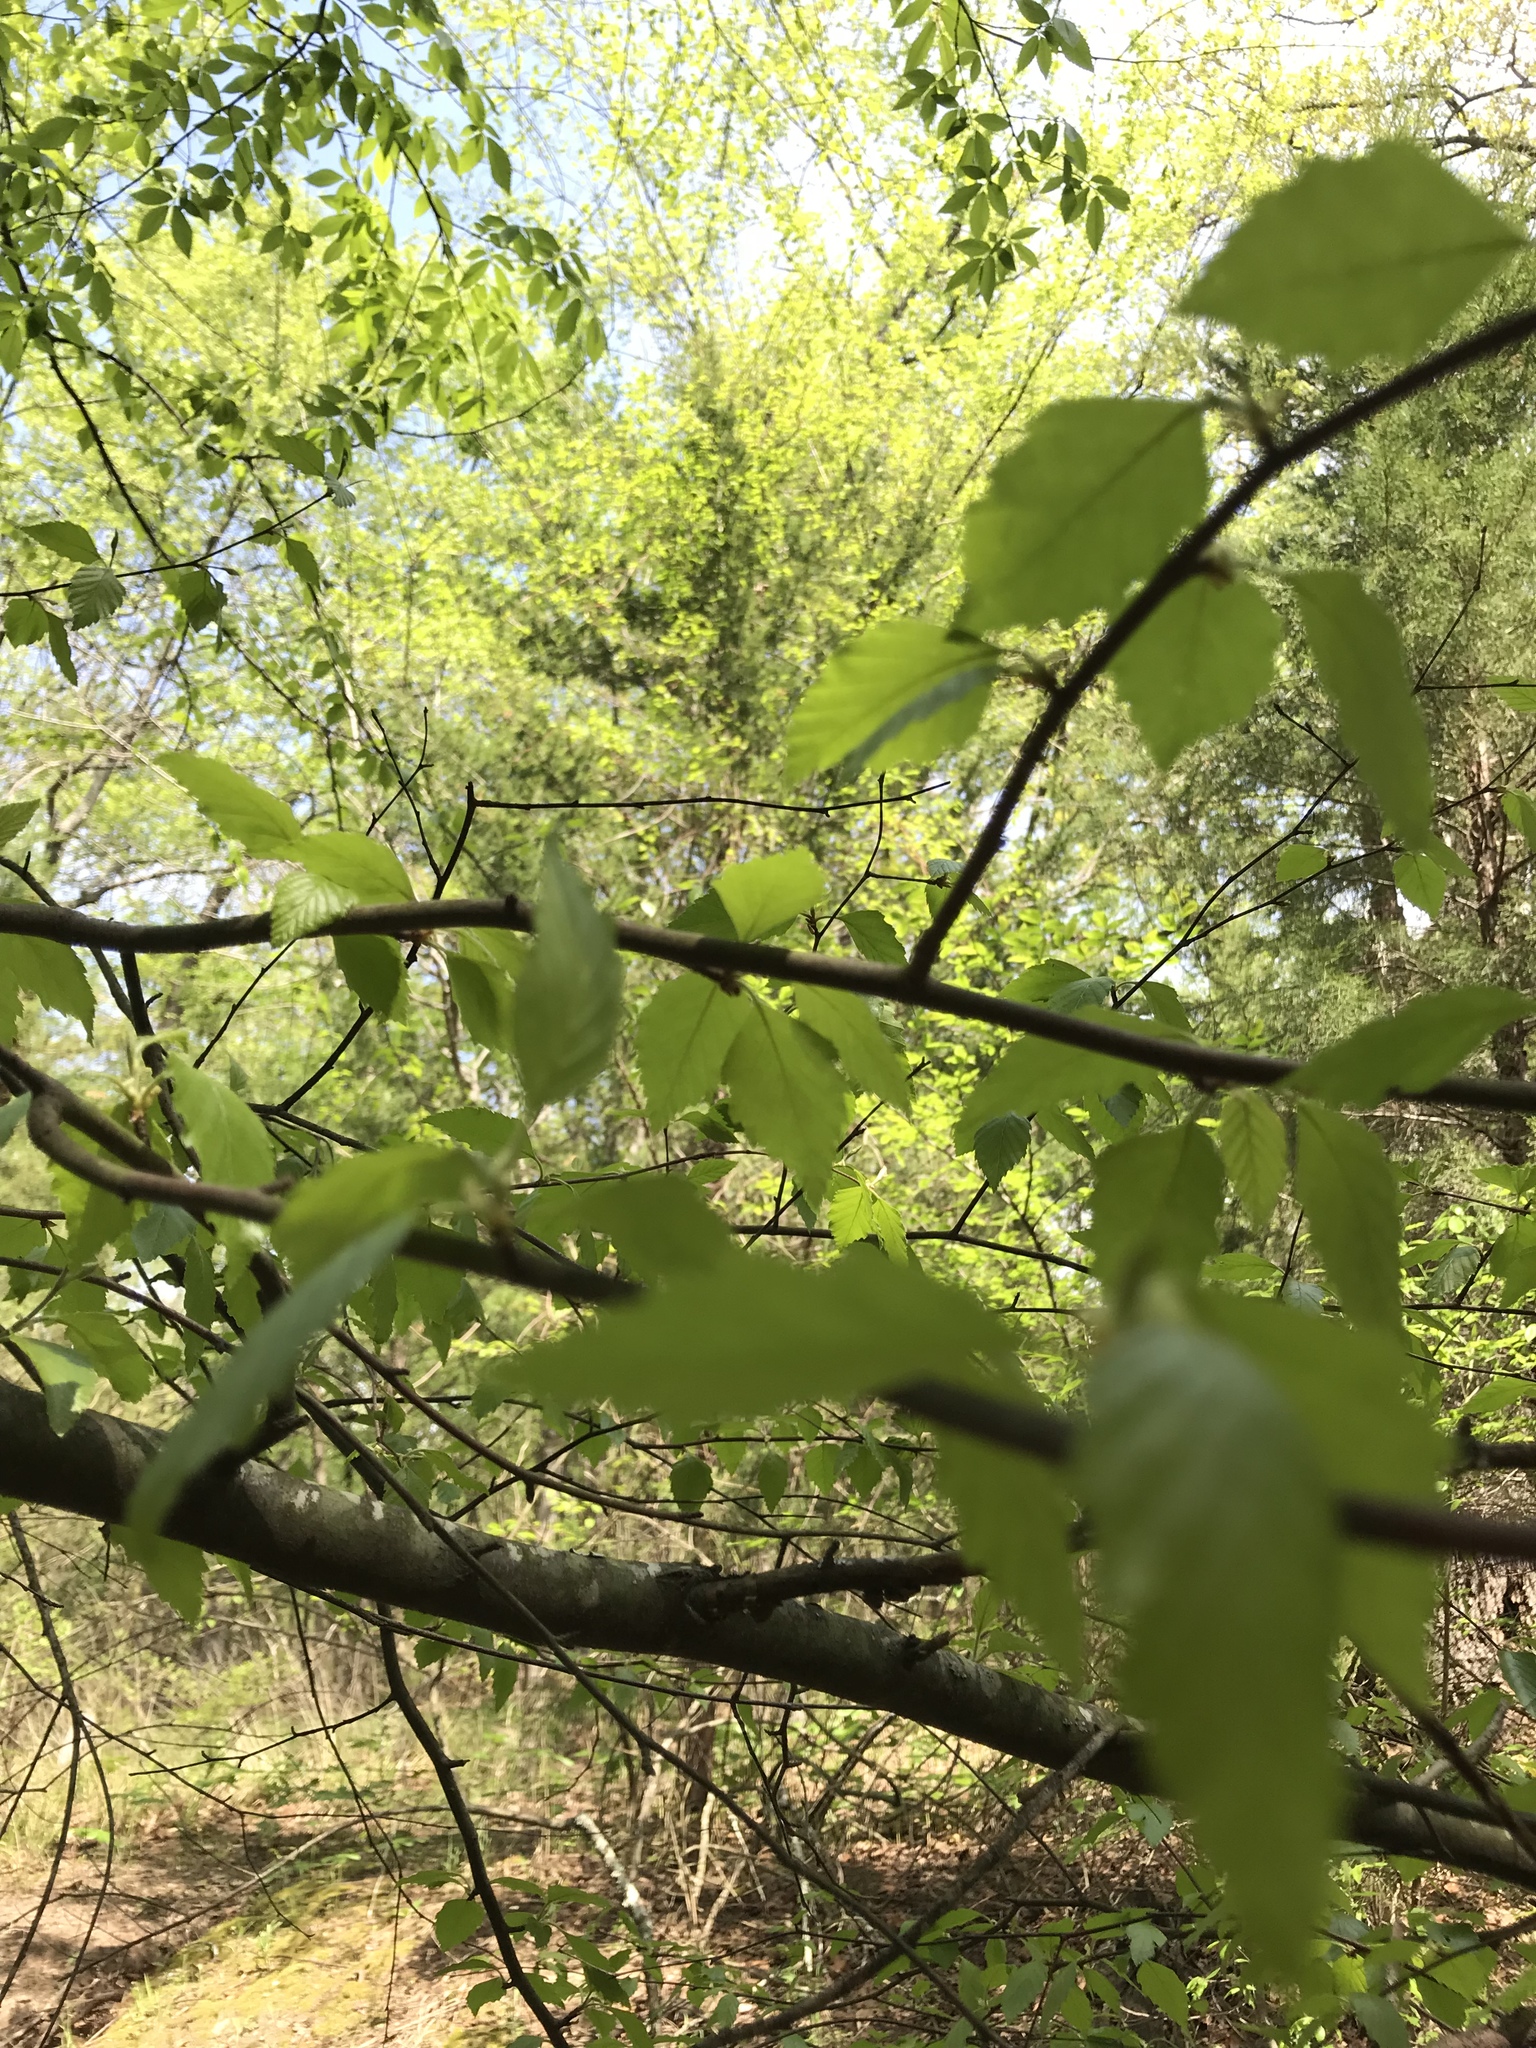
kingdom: Plantae
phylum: Tracheophyta
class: Magnoliopsida
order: Fagales
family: Betulaceae
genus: Betula
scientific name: Betula nigra
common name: Black birch
